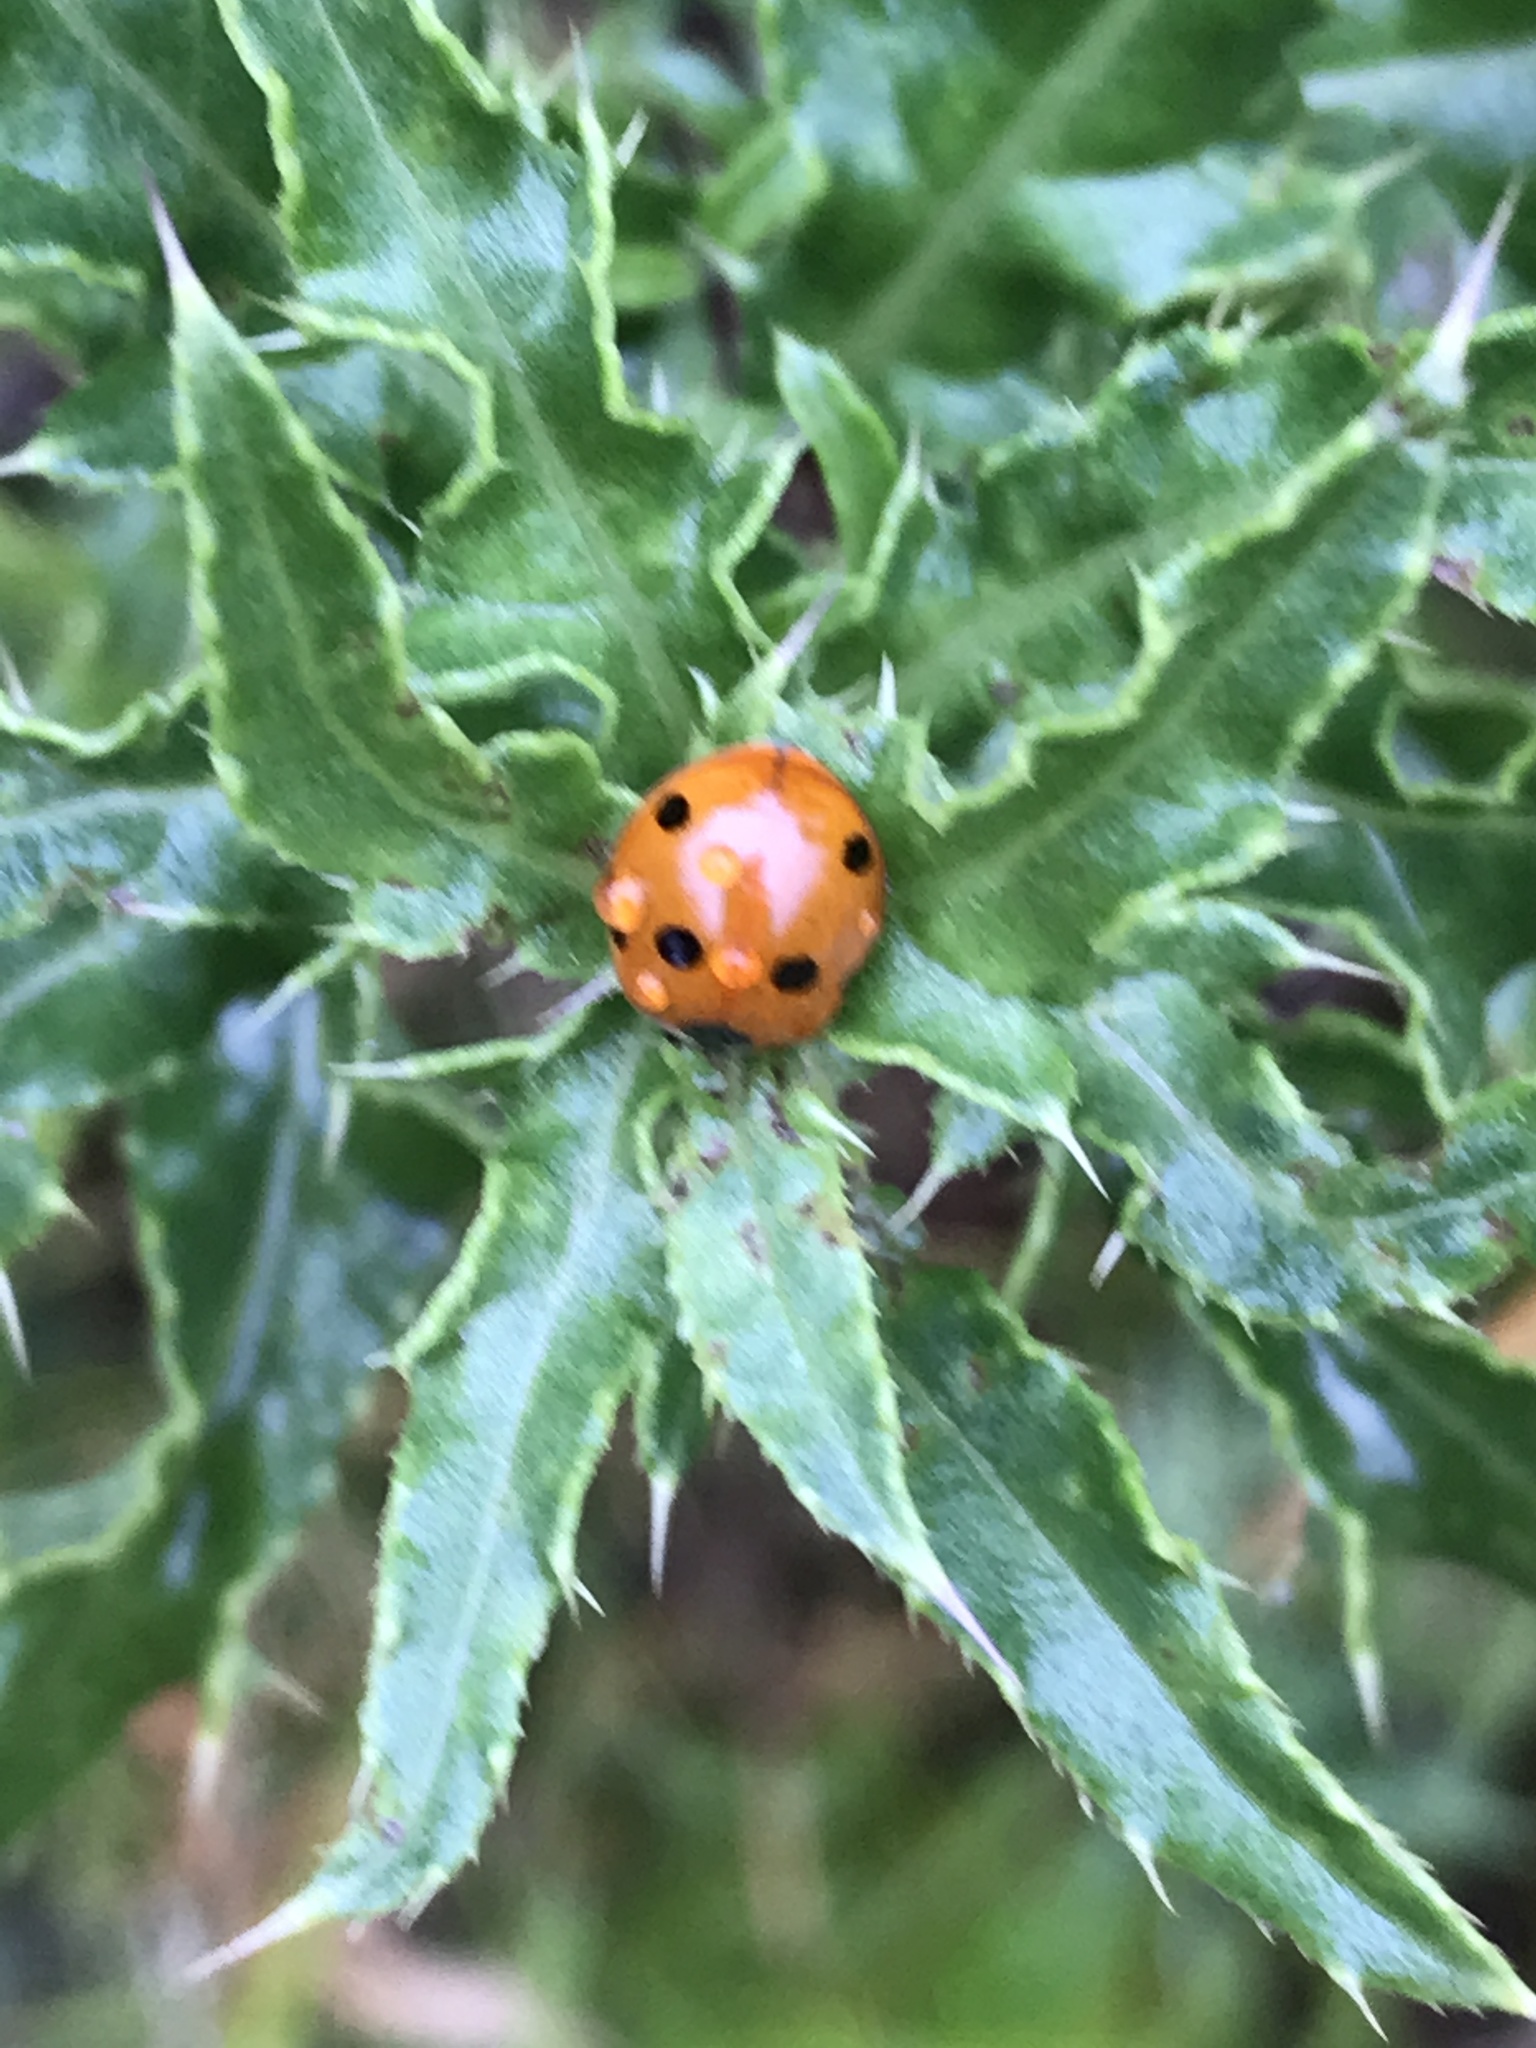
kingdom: Animalia
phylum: Arthropoda
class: Insecta
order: Coleoptera
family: Coccinellidae
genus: Coccinella
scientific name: Coccinella septempunctata
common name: Sevenspotted lady beetle
